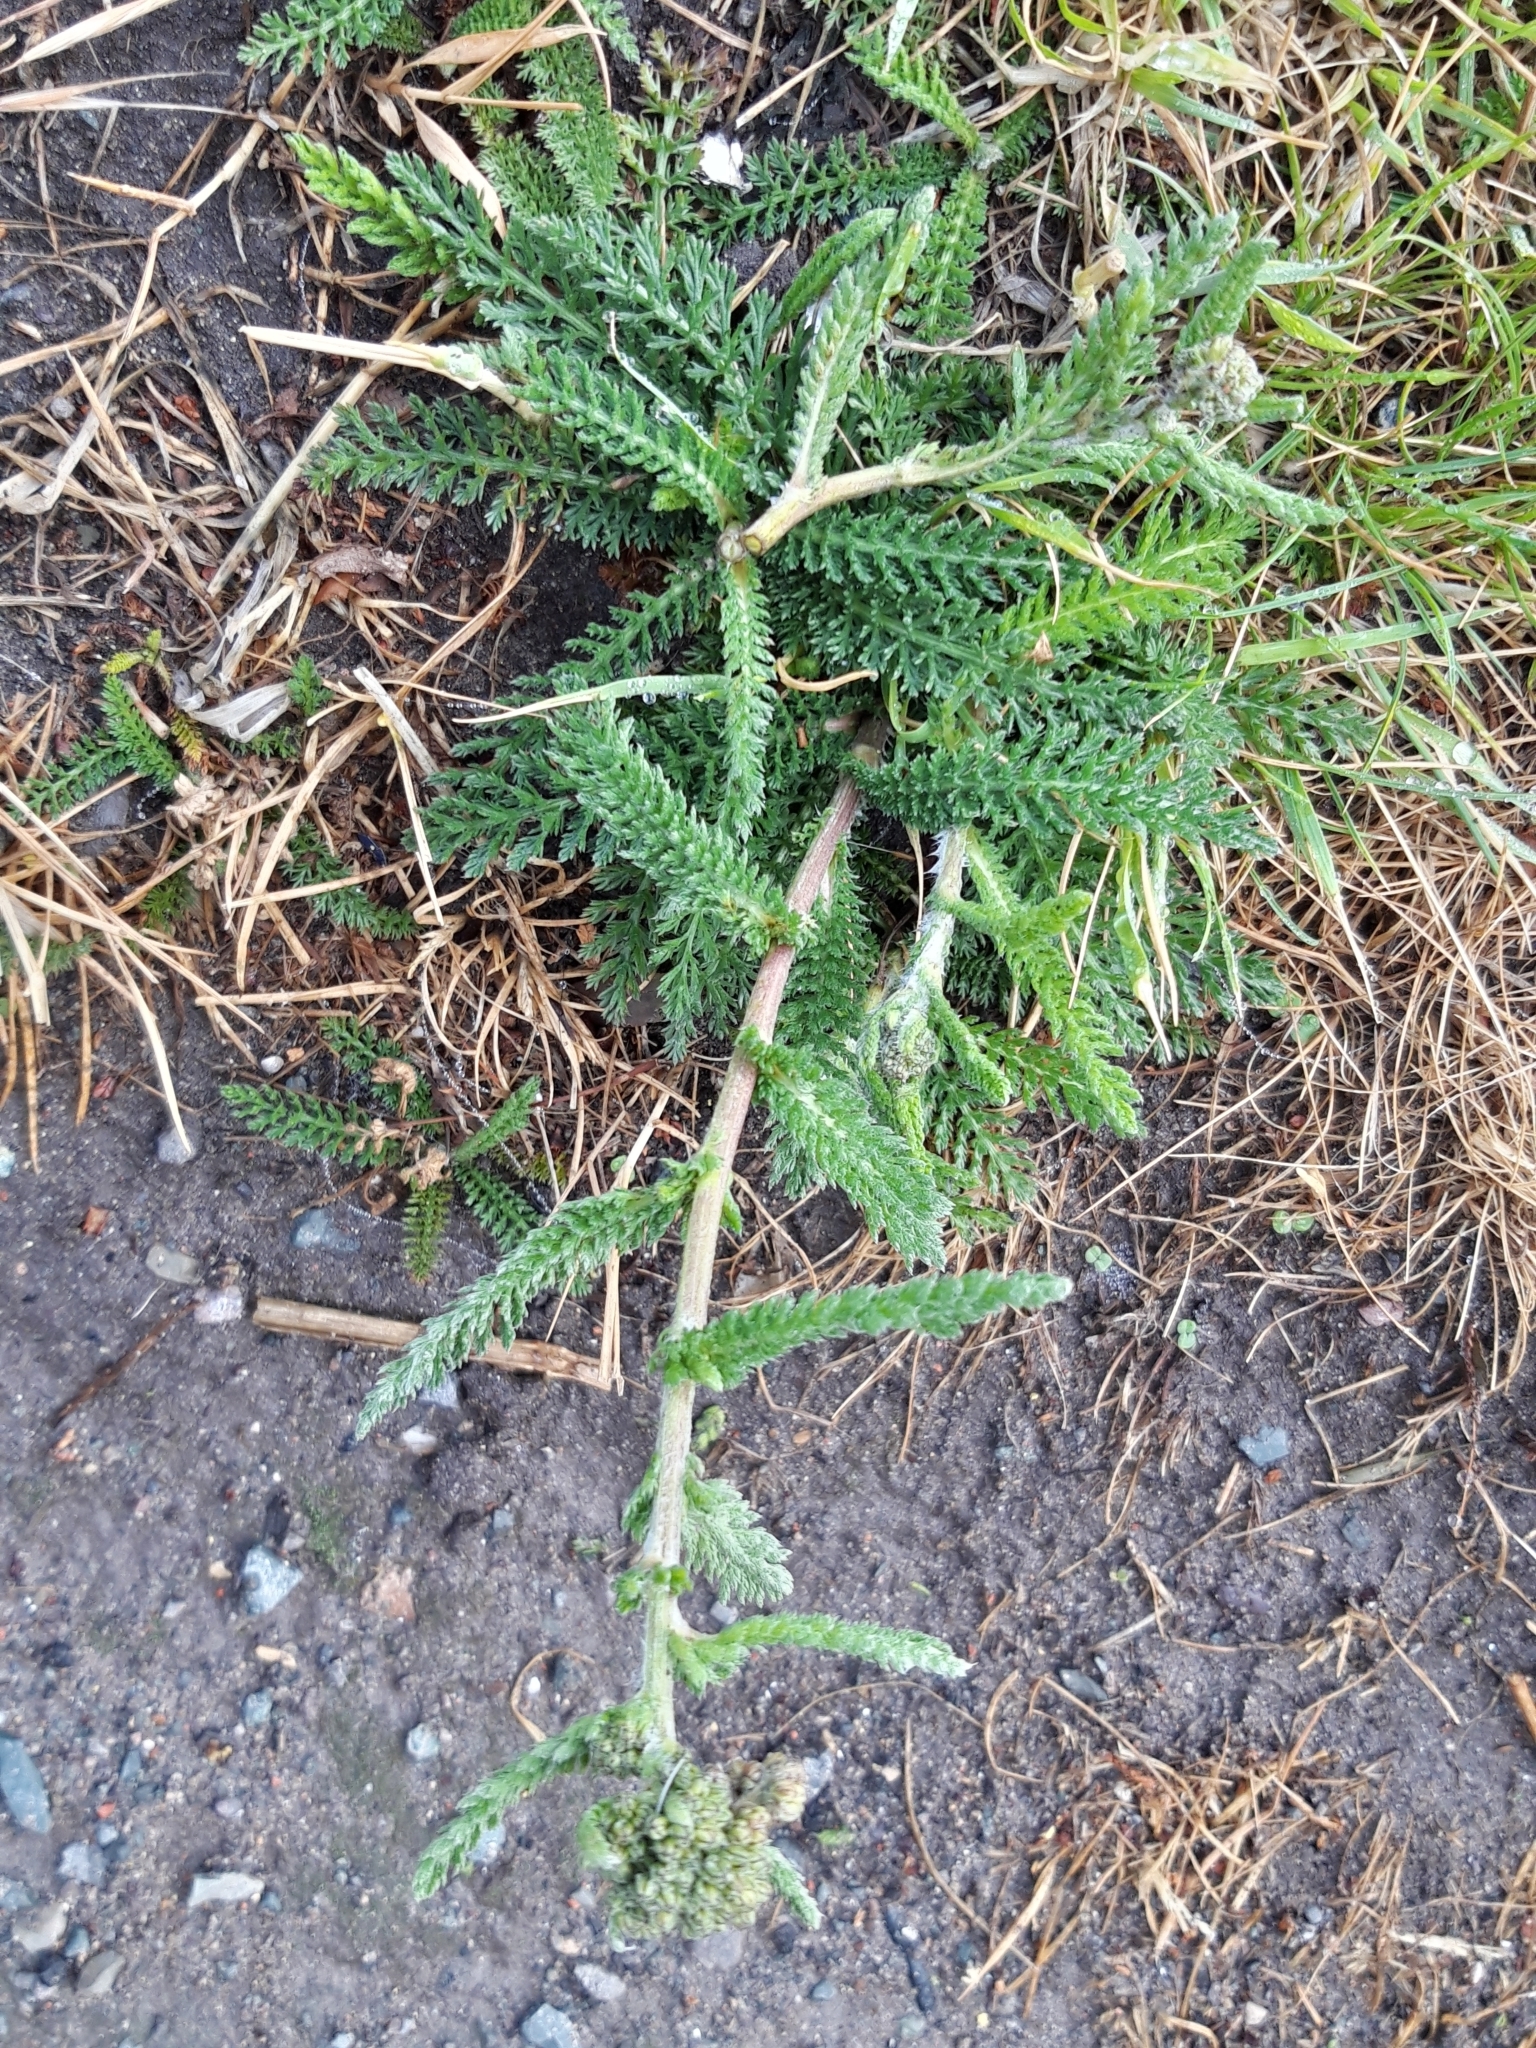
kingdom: Plantae
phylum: Tracheophyta
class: Magnoliopsida
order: Asterales
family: Asteraceae
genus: Achillea
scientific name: Achillea millefolium
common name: Yarrow
